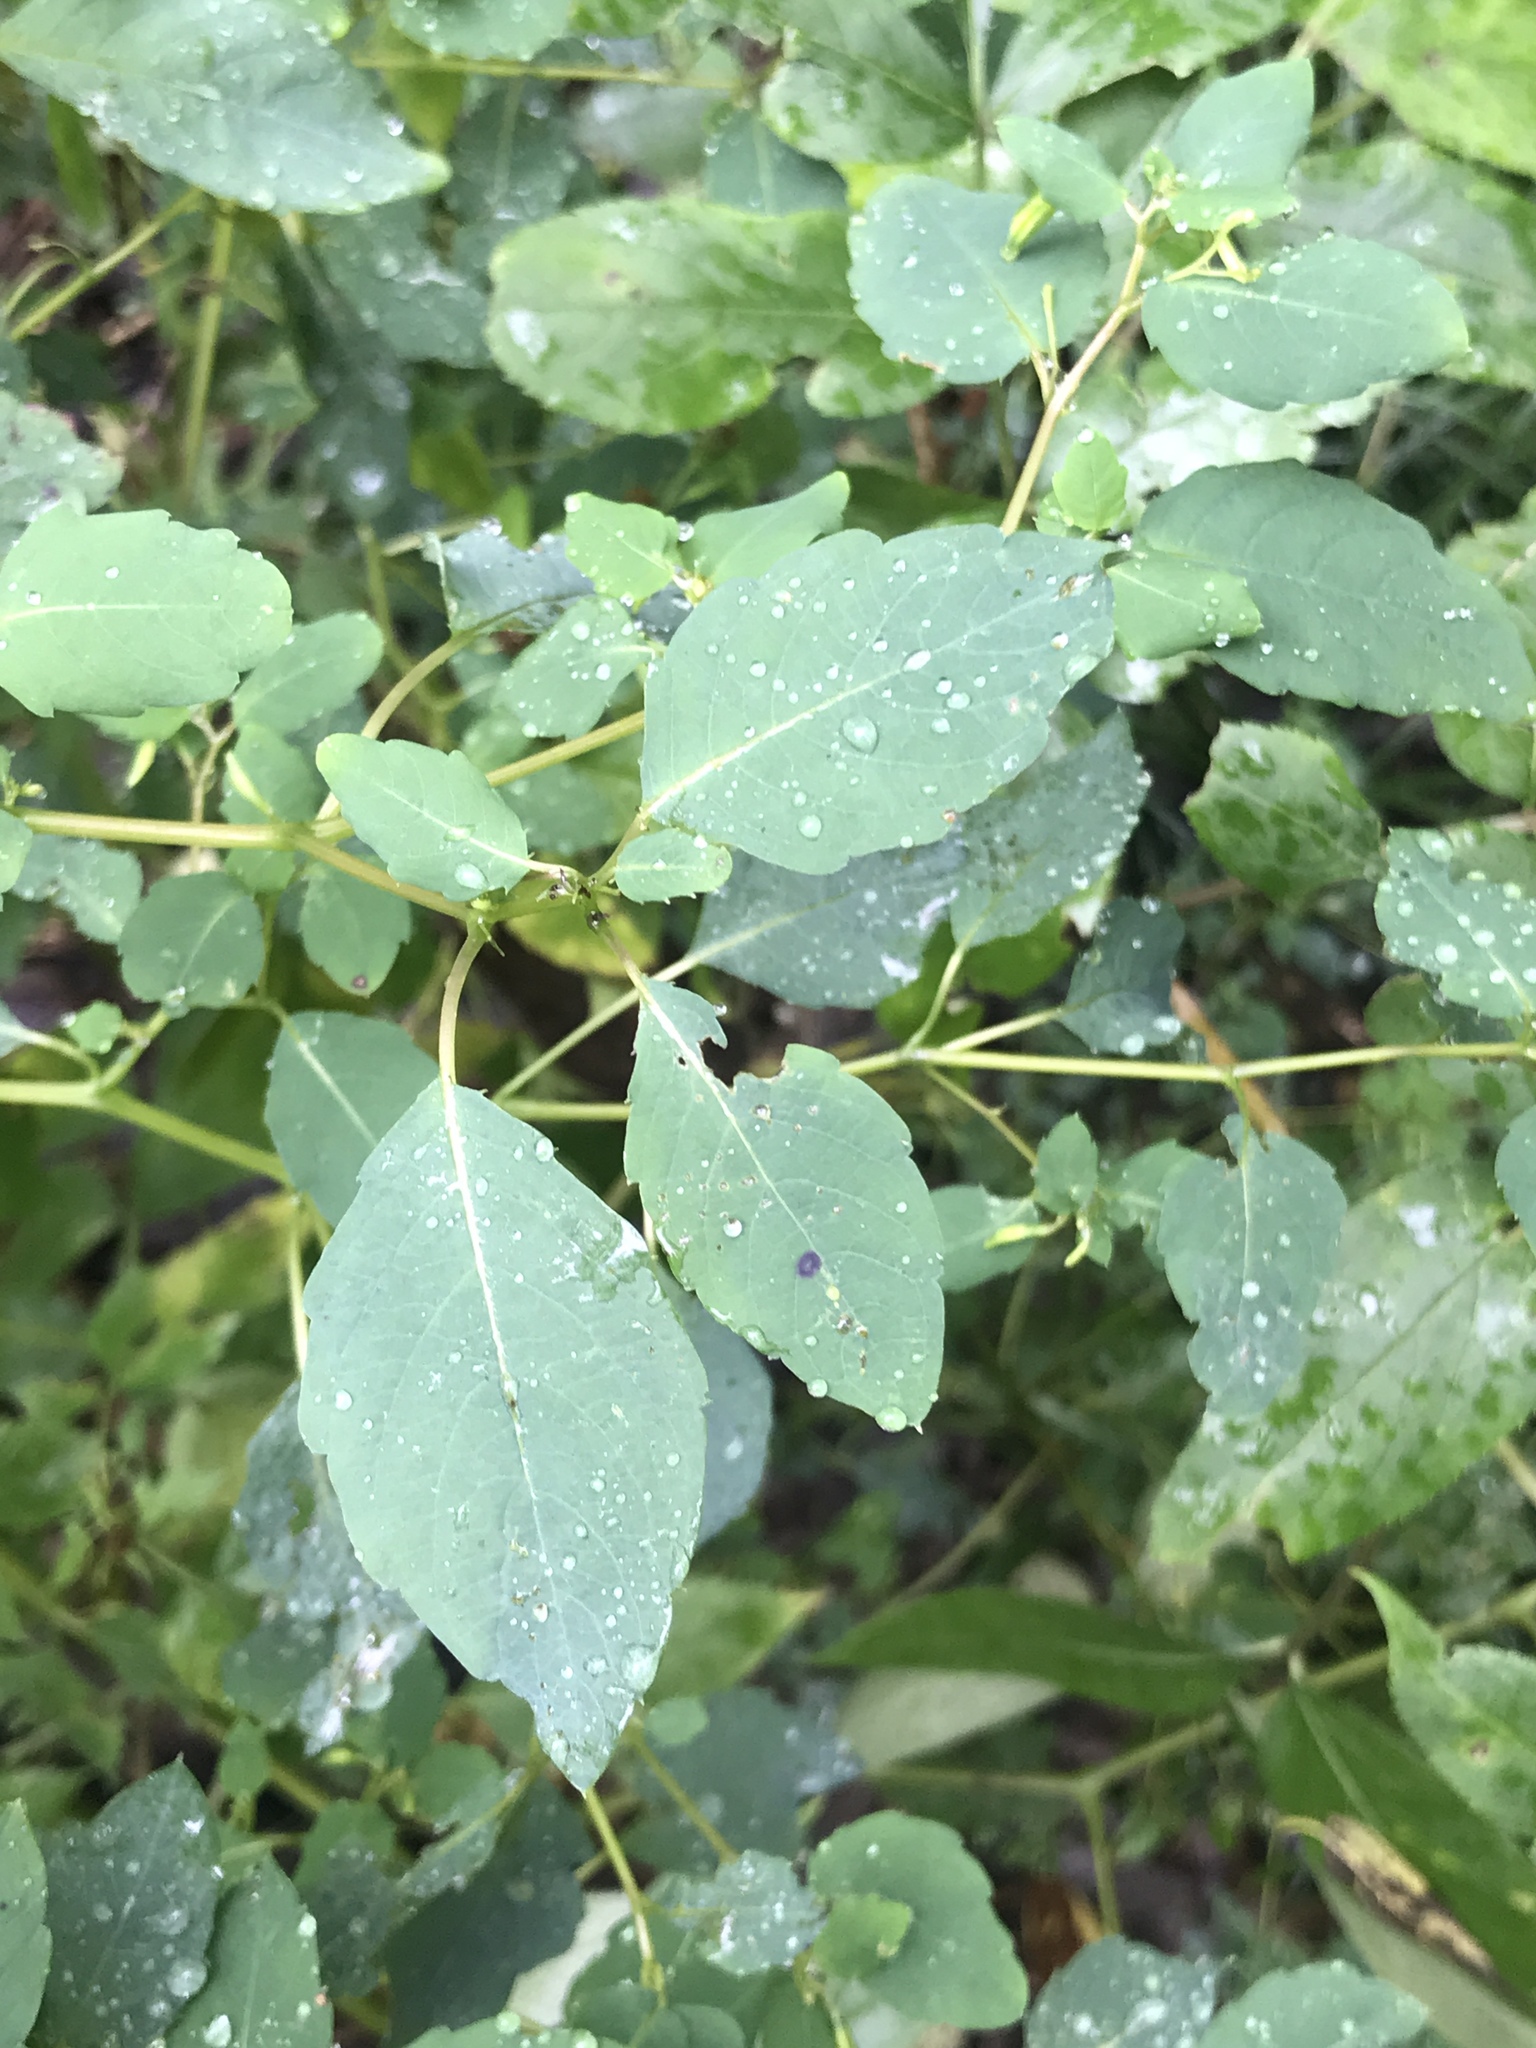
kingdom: Plantae
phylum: Tracheophyta
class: Magnoliopsida
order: Ericales
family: Balsaminaceae
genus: Impatiens
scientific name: Impatiens capensis
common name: Orange balsam
